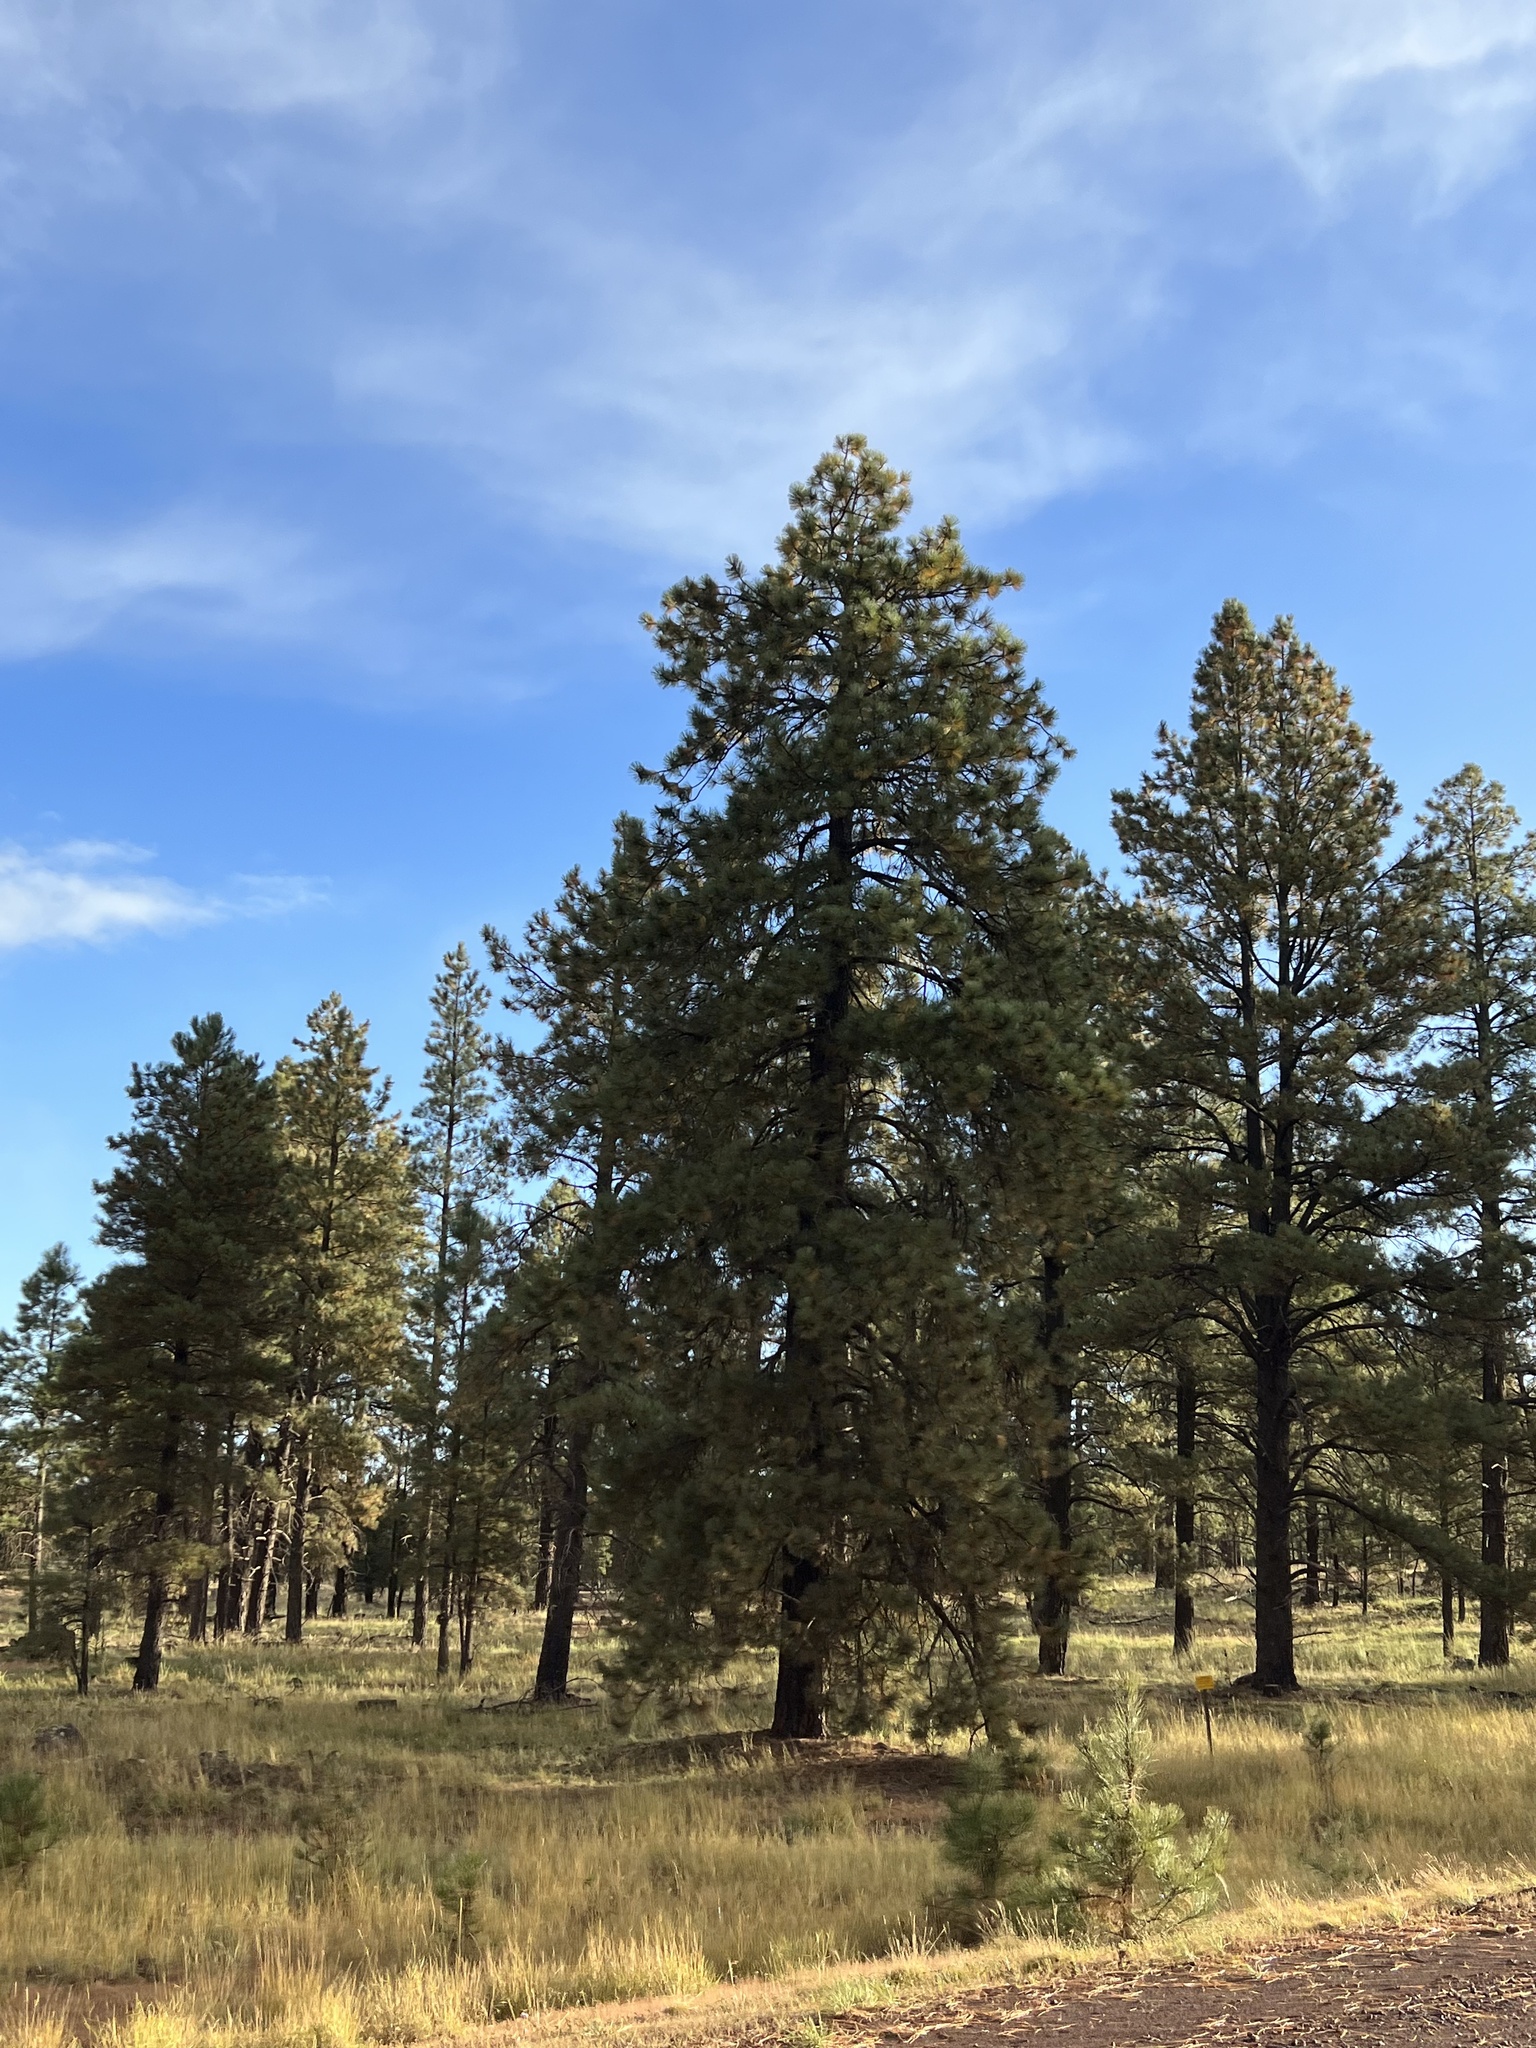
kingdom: Plantae
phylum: Tracheophyta
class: Pinopsida
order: Pinales
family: Pinaceae
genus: Pinus
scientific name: Pinus ponderosa
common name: Western yellow-pine
